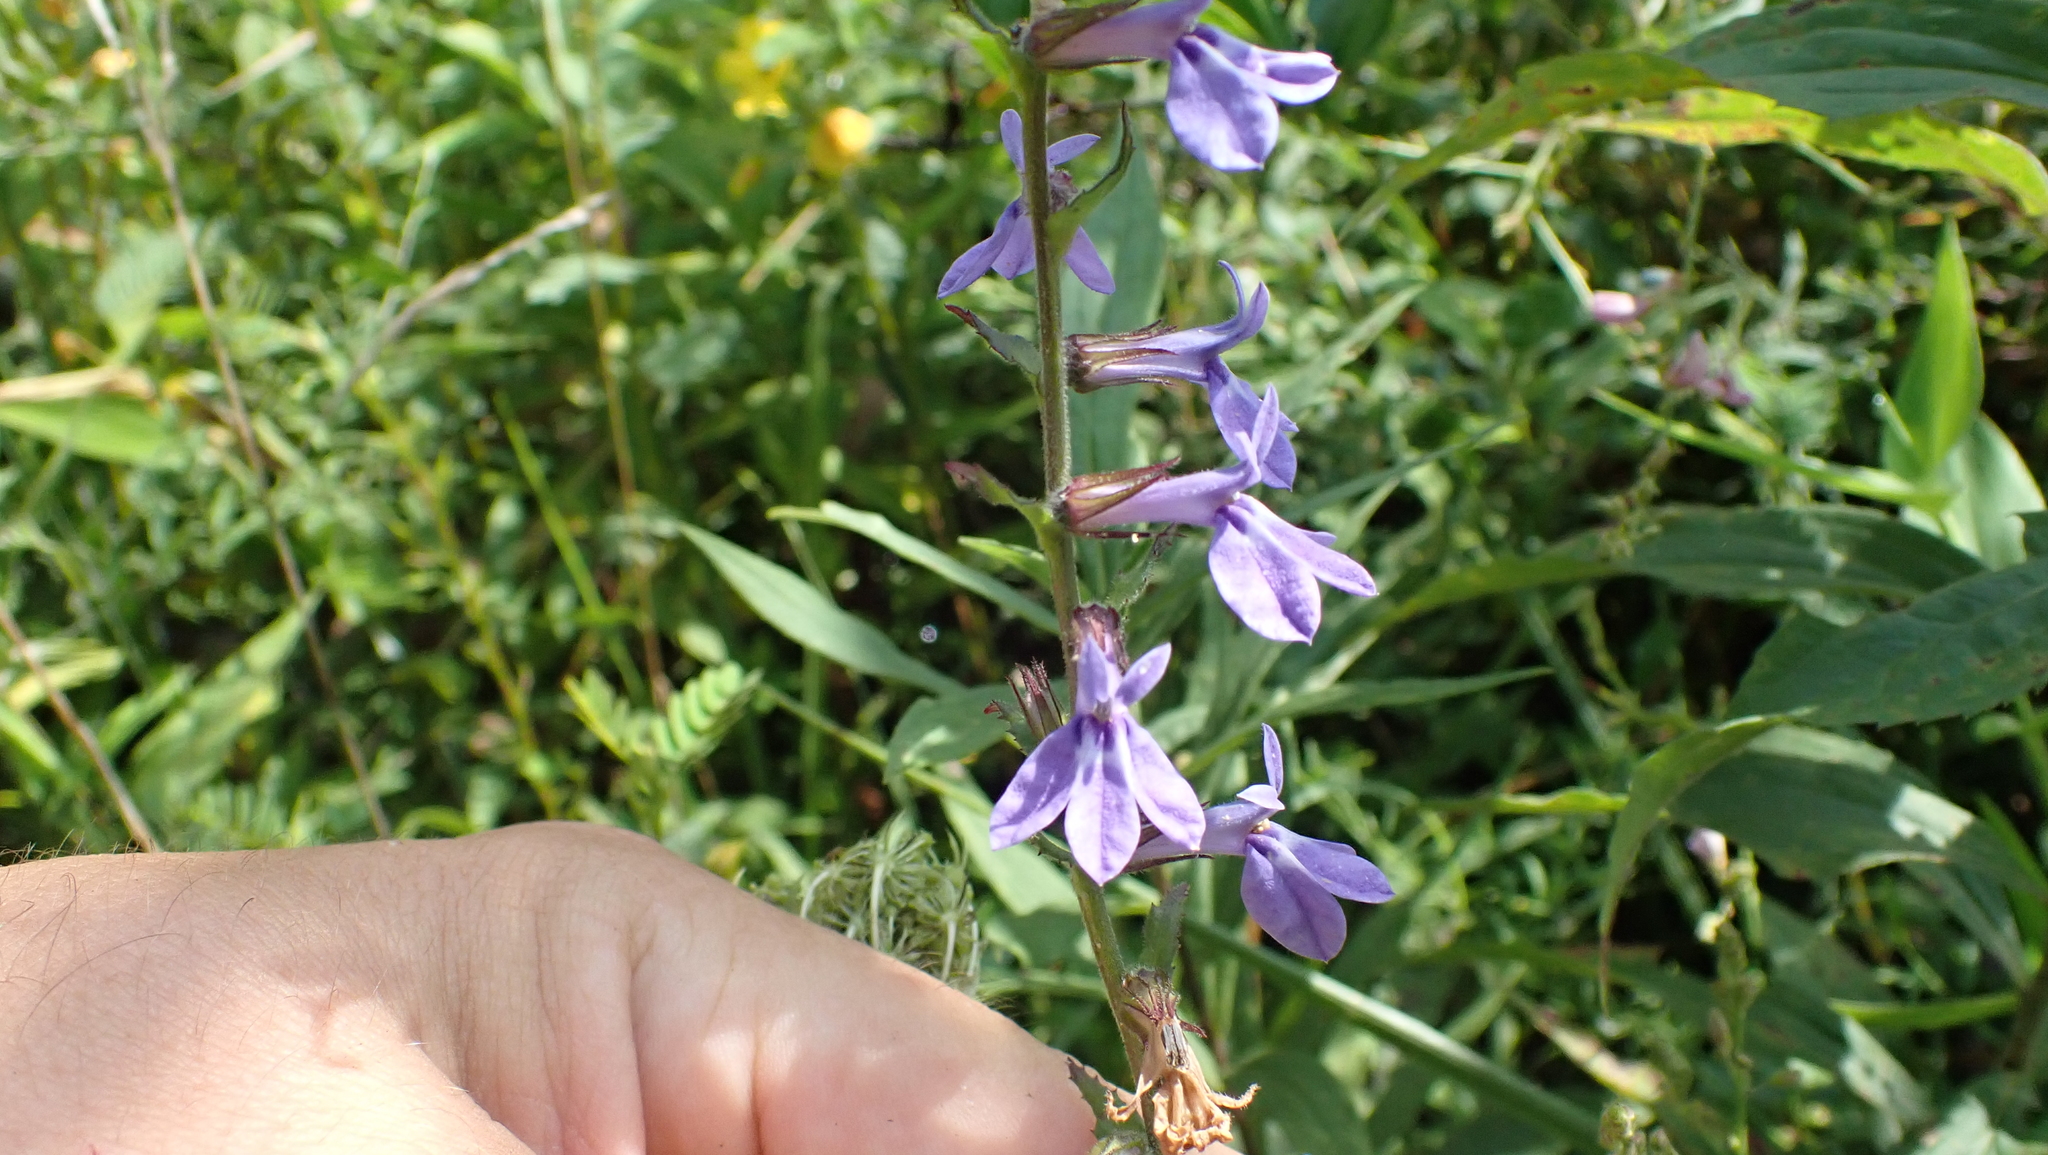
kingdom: Plantae
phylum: Tracheophyta
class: Magnoliopsida
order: Asterales
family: Campanulaceae
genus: Lobelia
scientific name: Lobelia puberula
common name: Purple dewdrop
